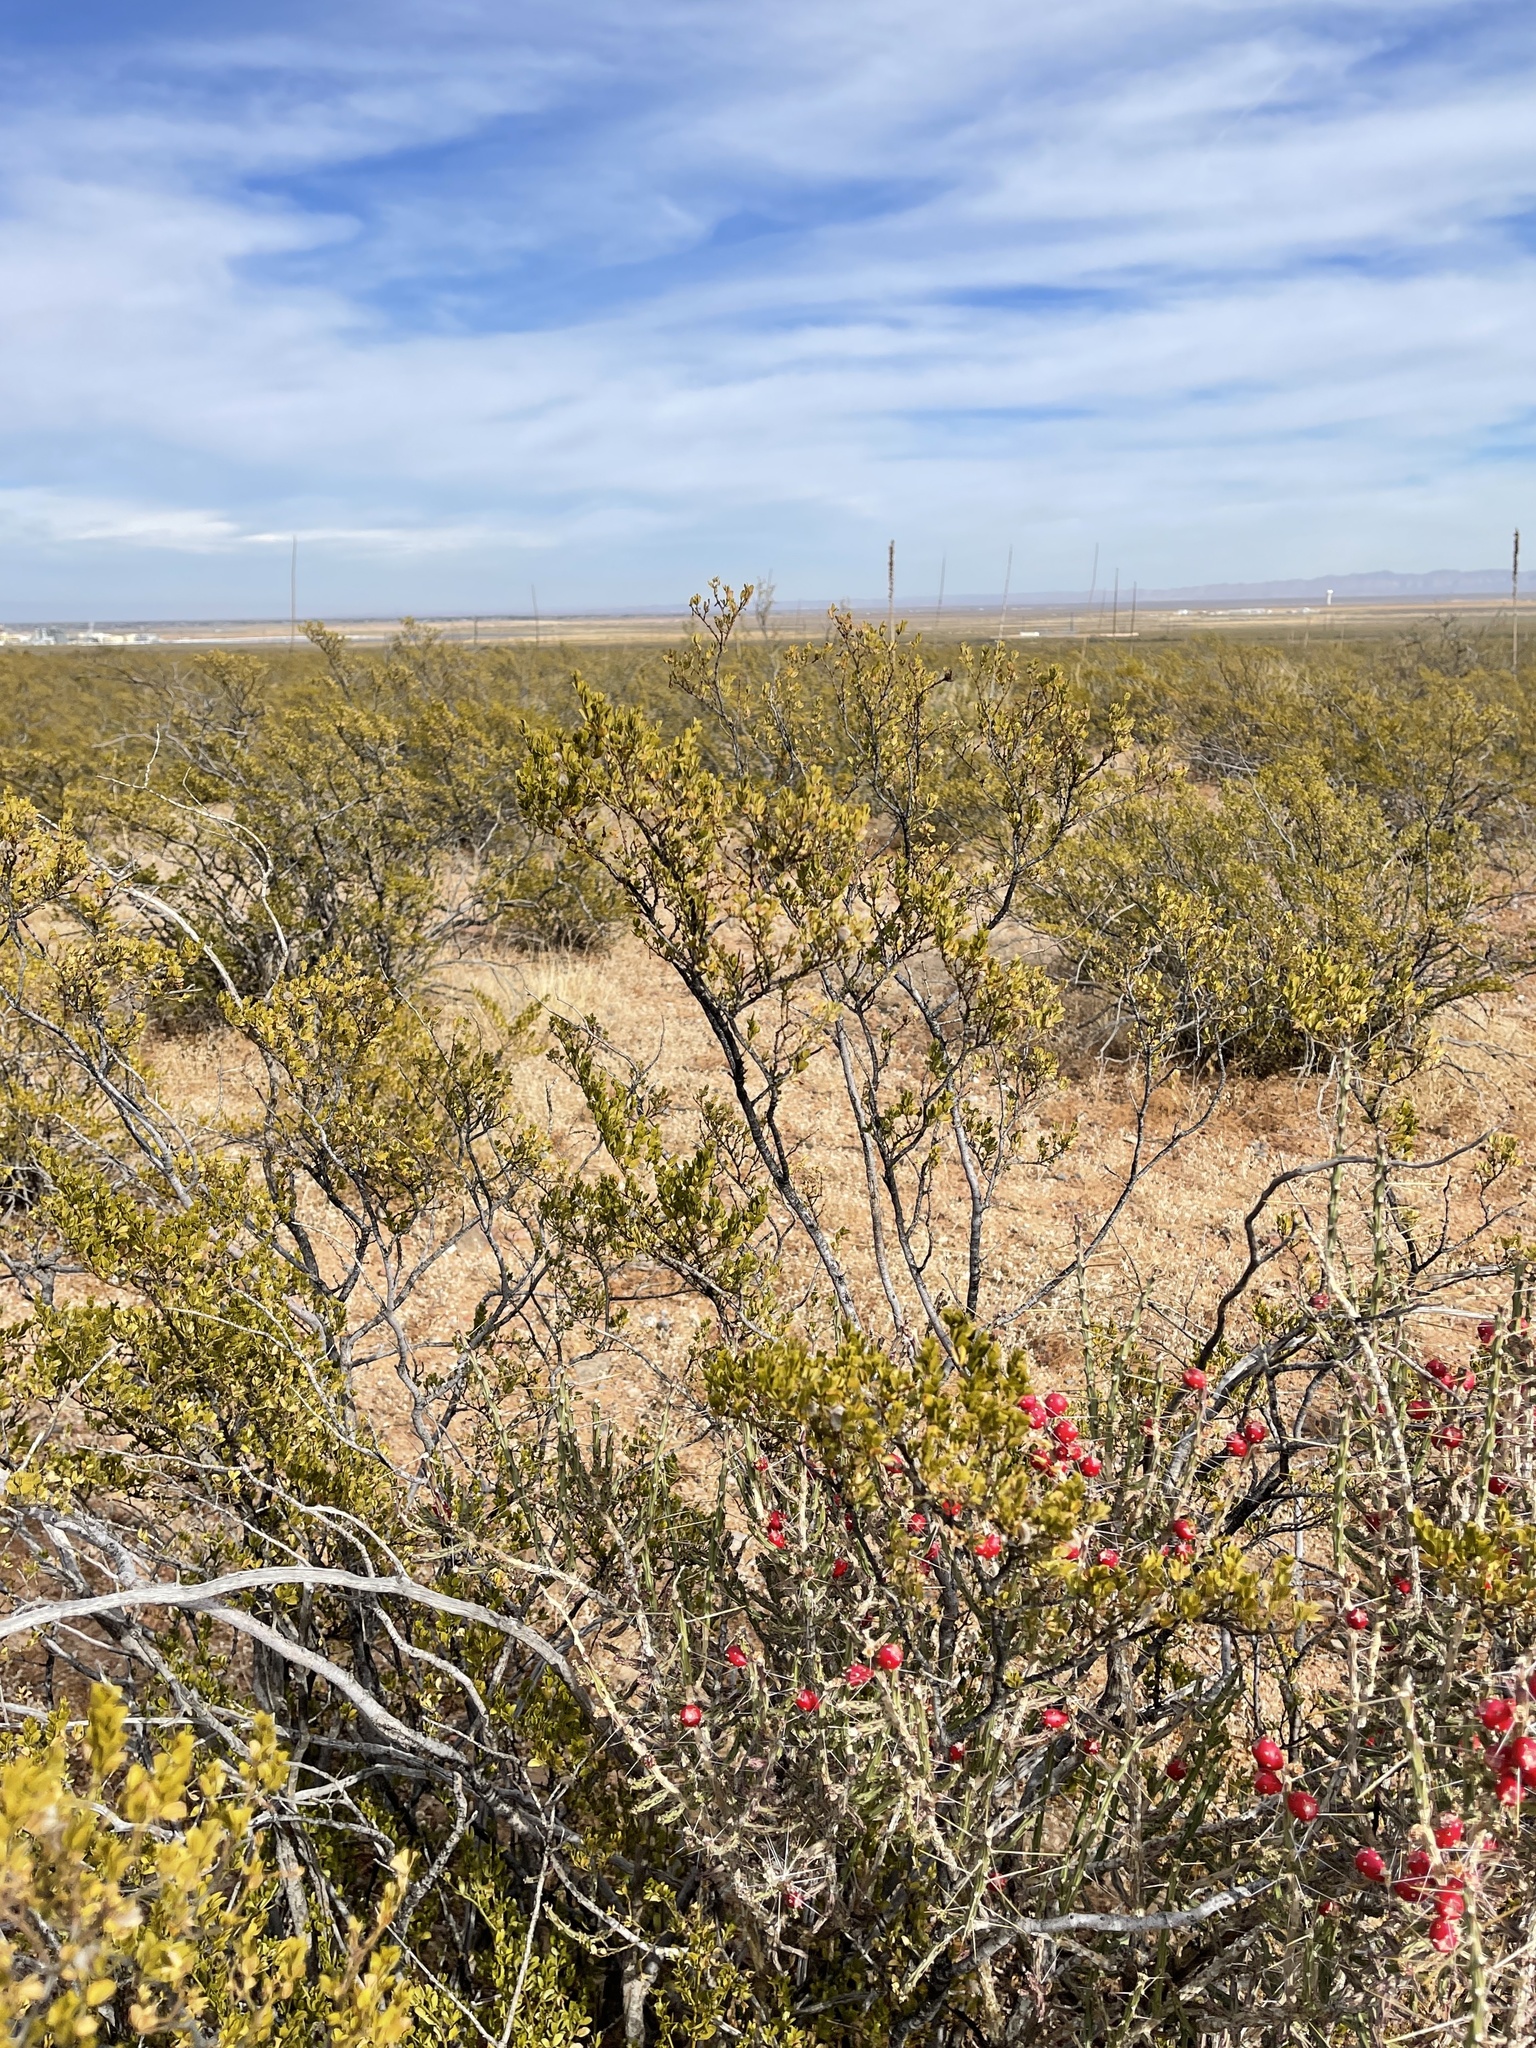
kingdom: Plantae
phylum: Tracheophyta
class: Magnoliopsida
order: Zygophyllales
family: Zygophyllaceae
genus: Larrea
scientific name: Larrea tridentata
